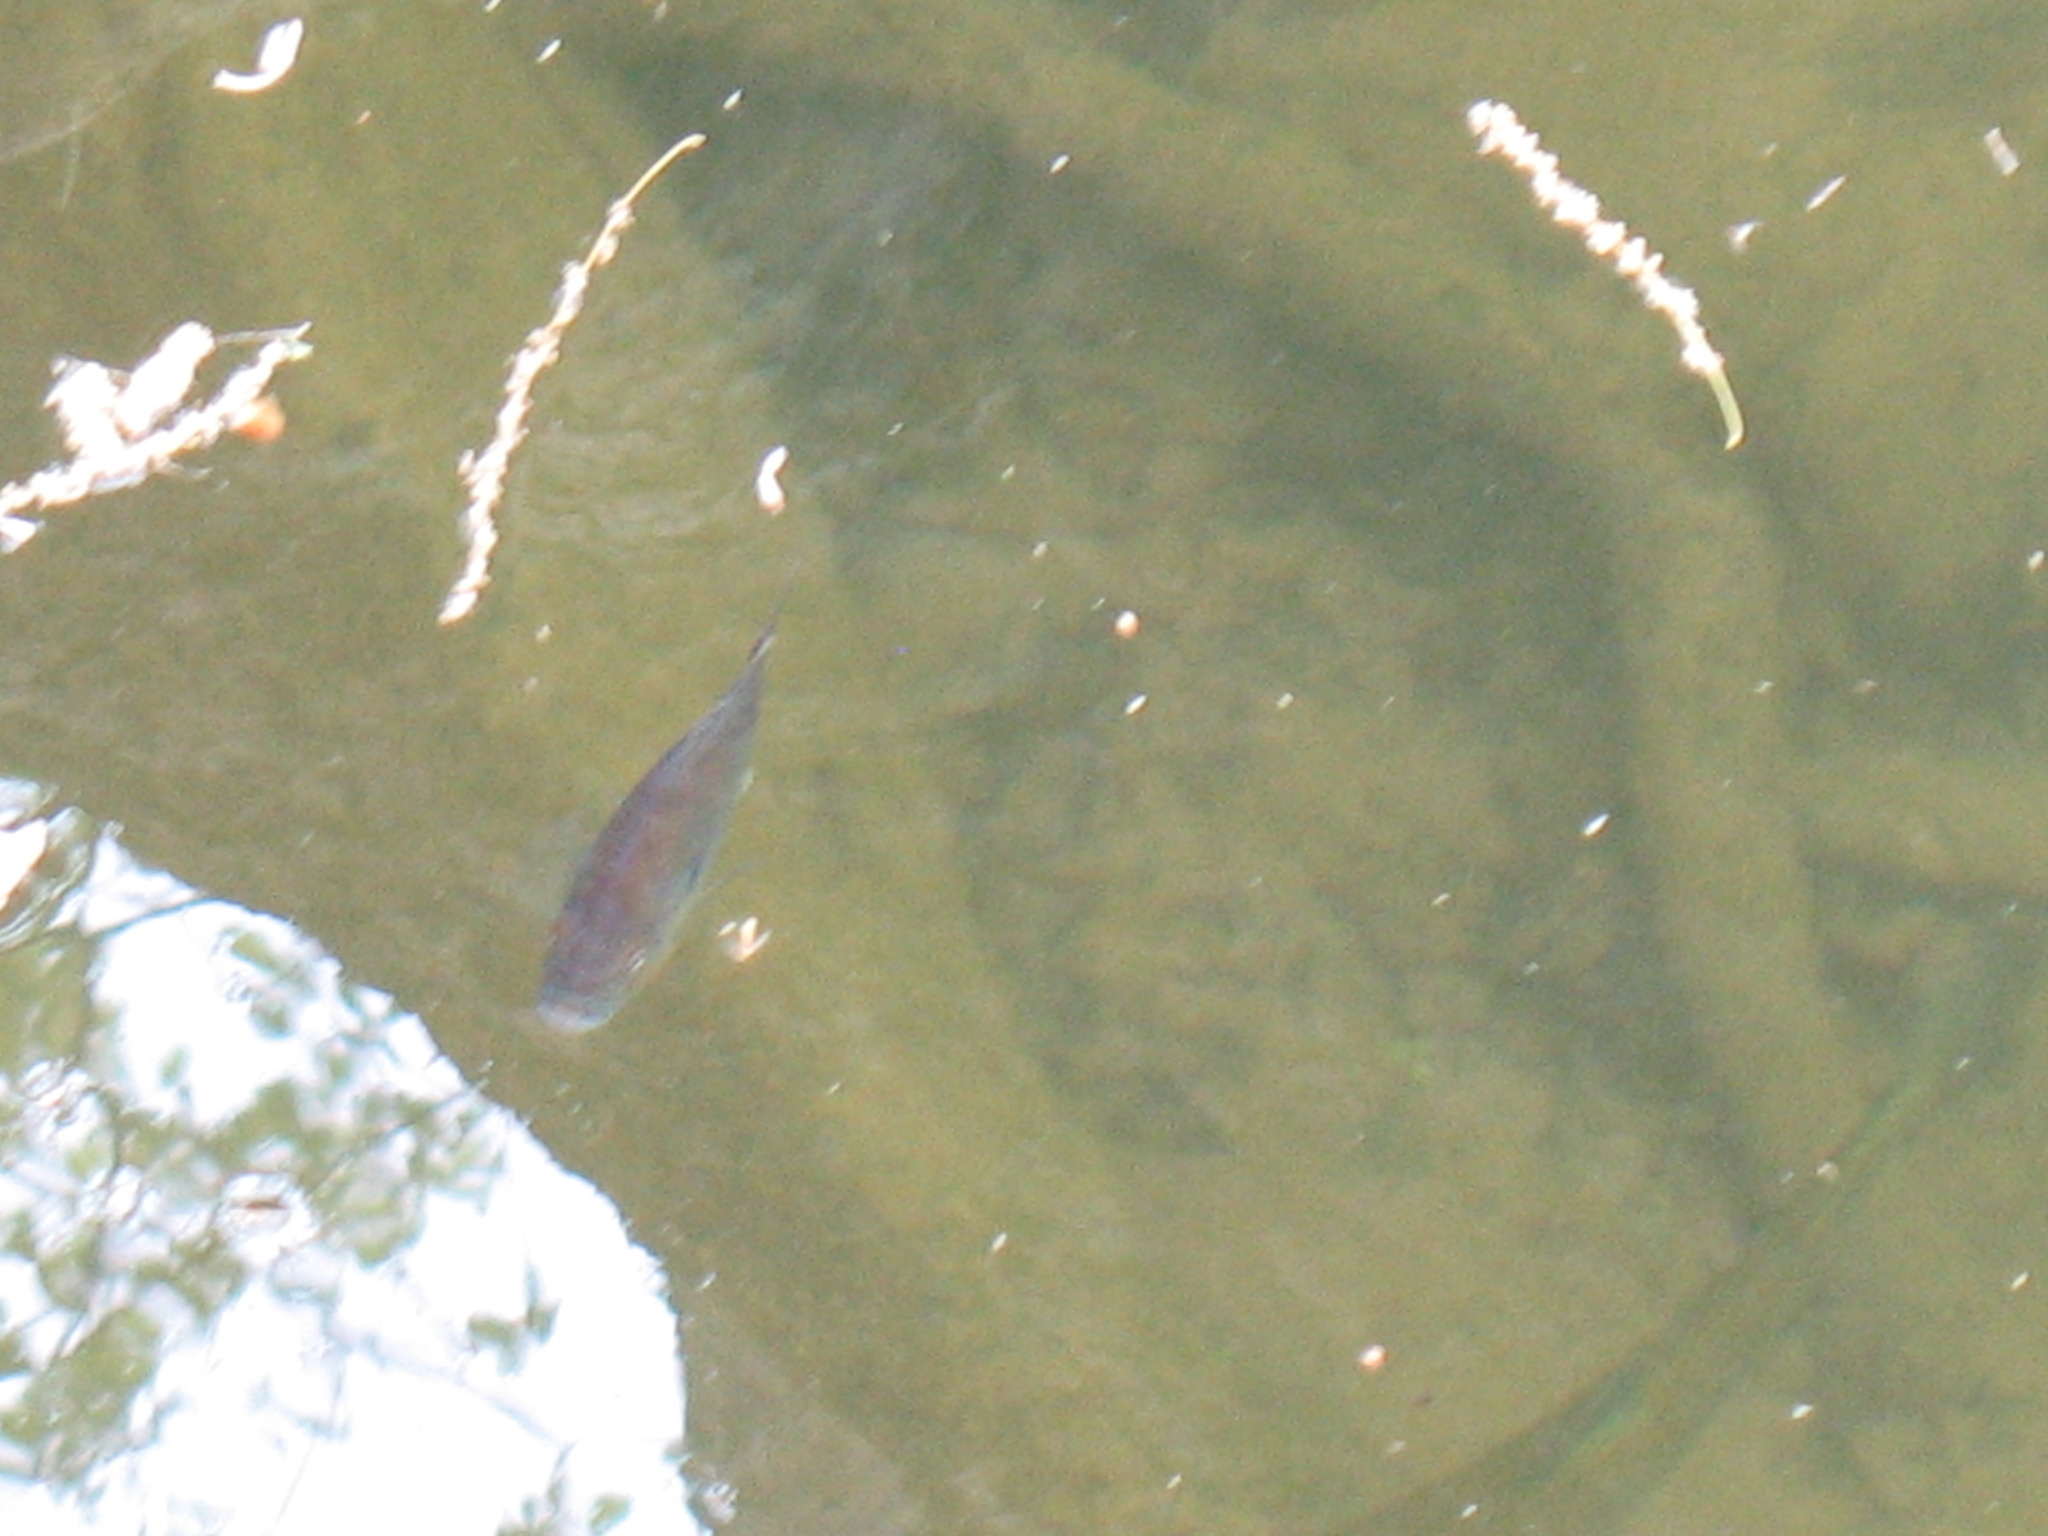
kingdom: Animalia
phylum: Chordata
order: Perciformes
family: Centrarchidae
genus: Lepomis
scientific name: Lepomis
